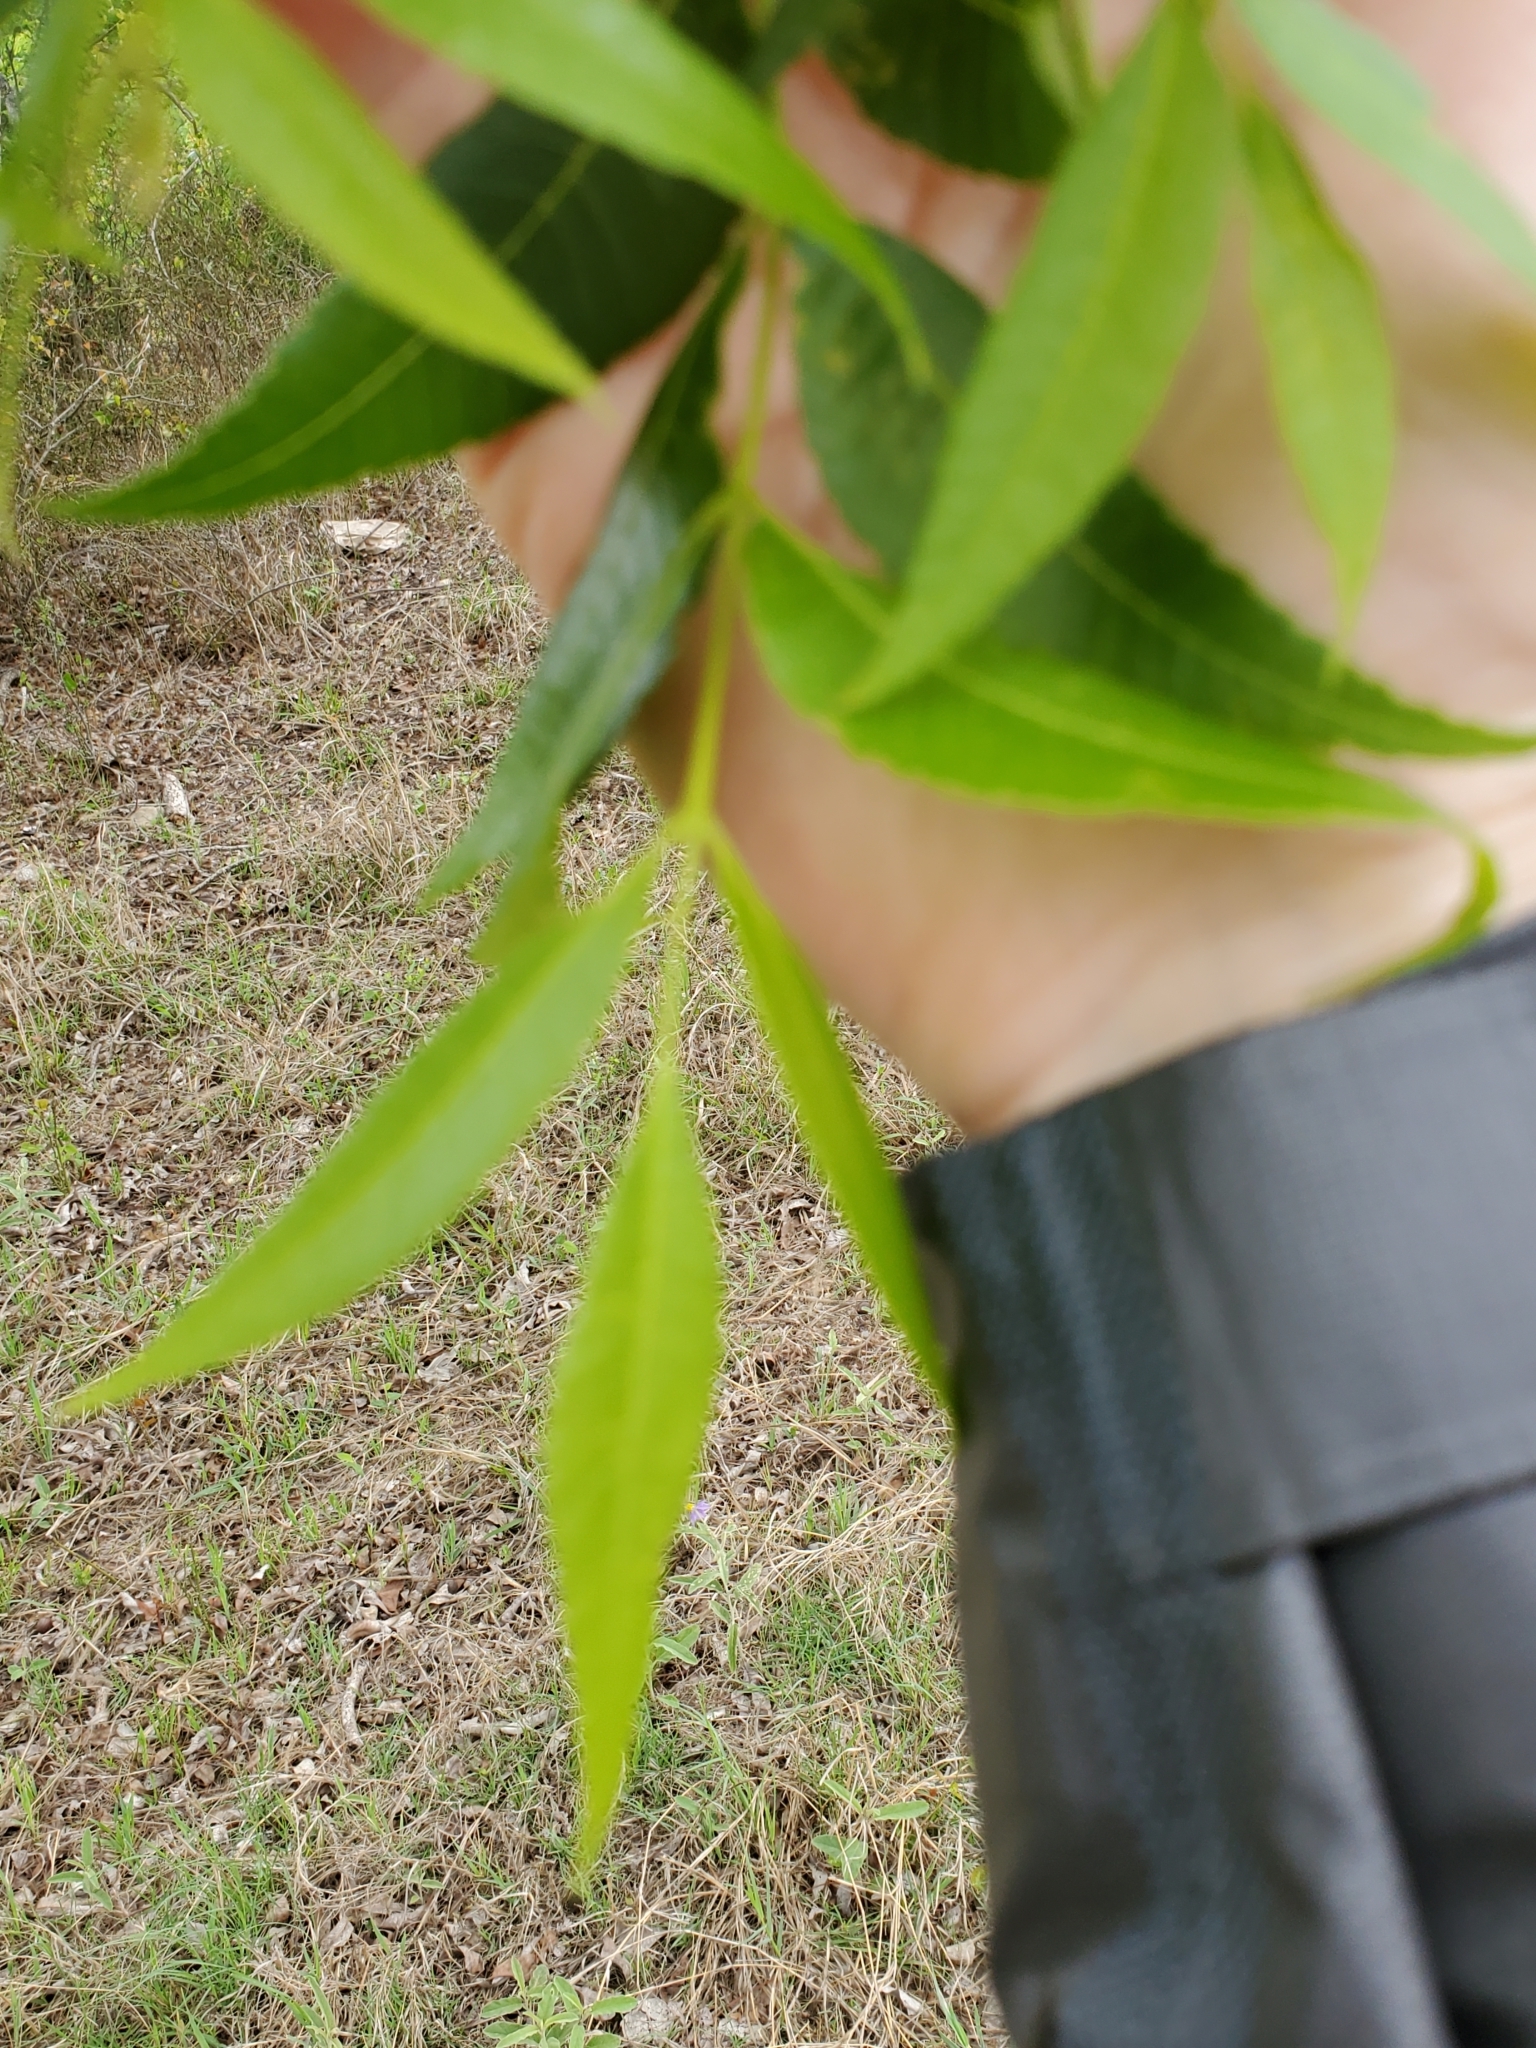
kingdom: Plantae
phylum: Tracheophyta
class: Magnoliopsida
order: Fagales
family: Juglandaceae
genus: Carya
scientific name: Carya illinoinensis
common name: Pecan
